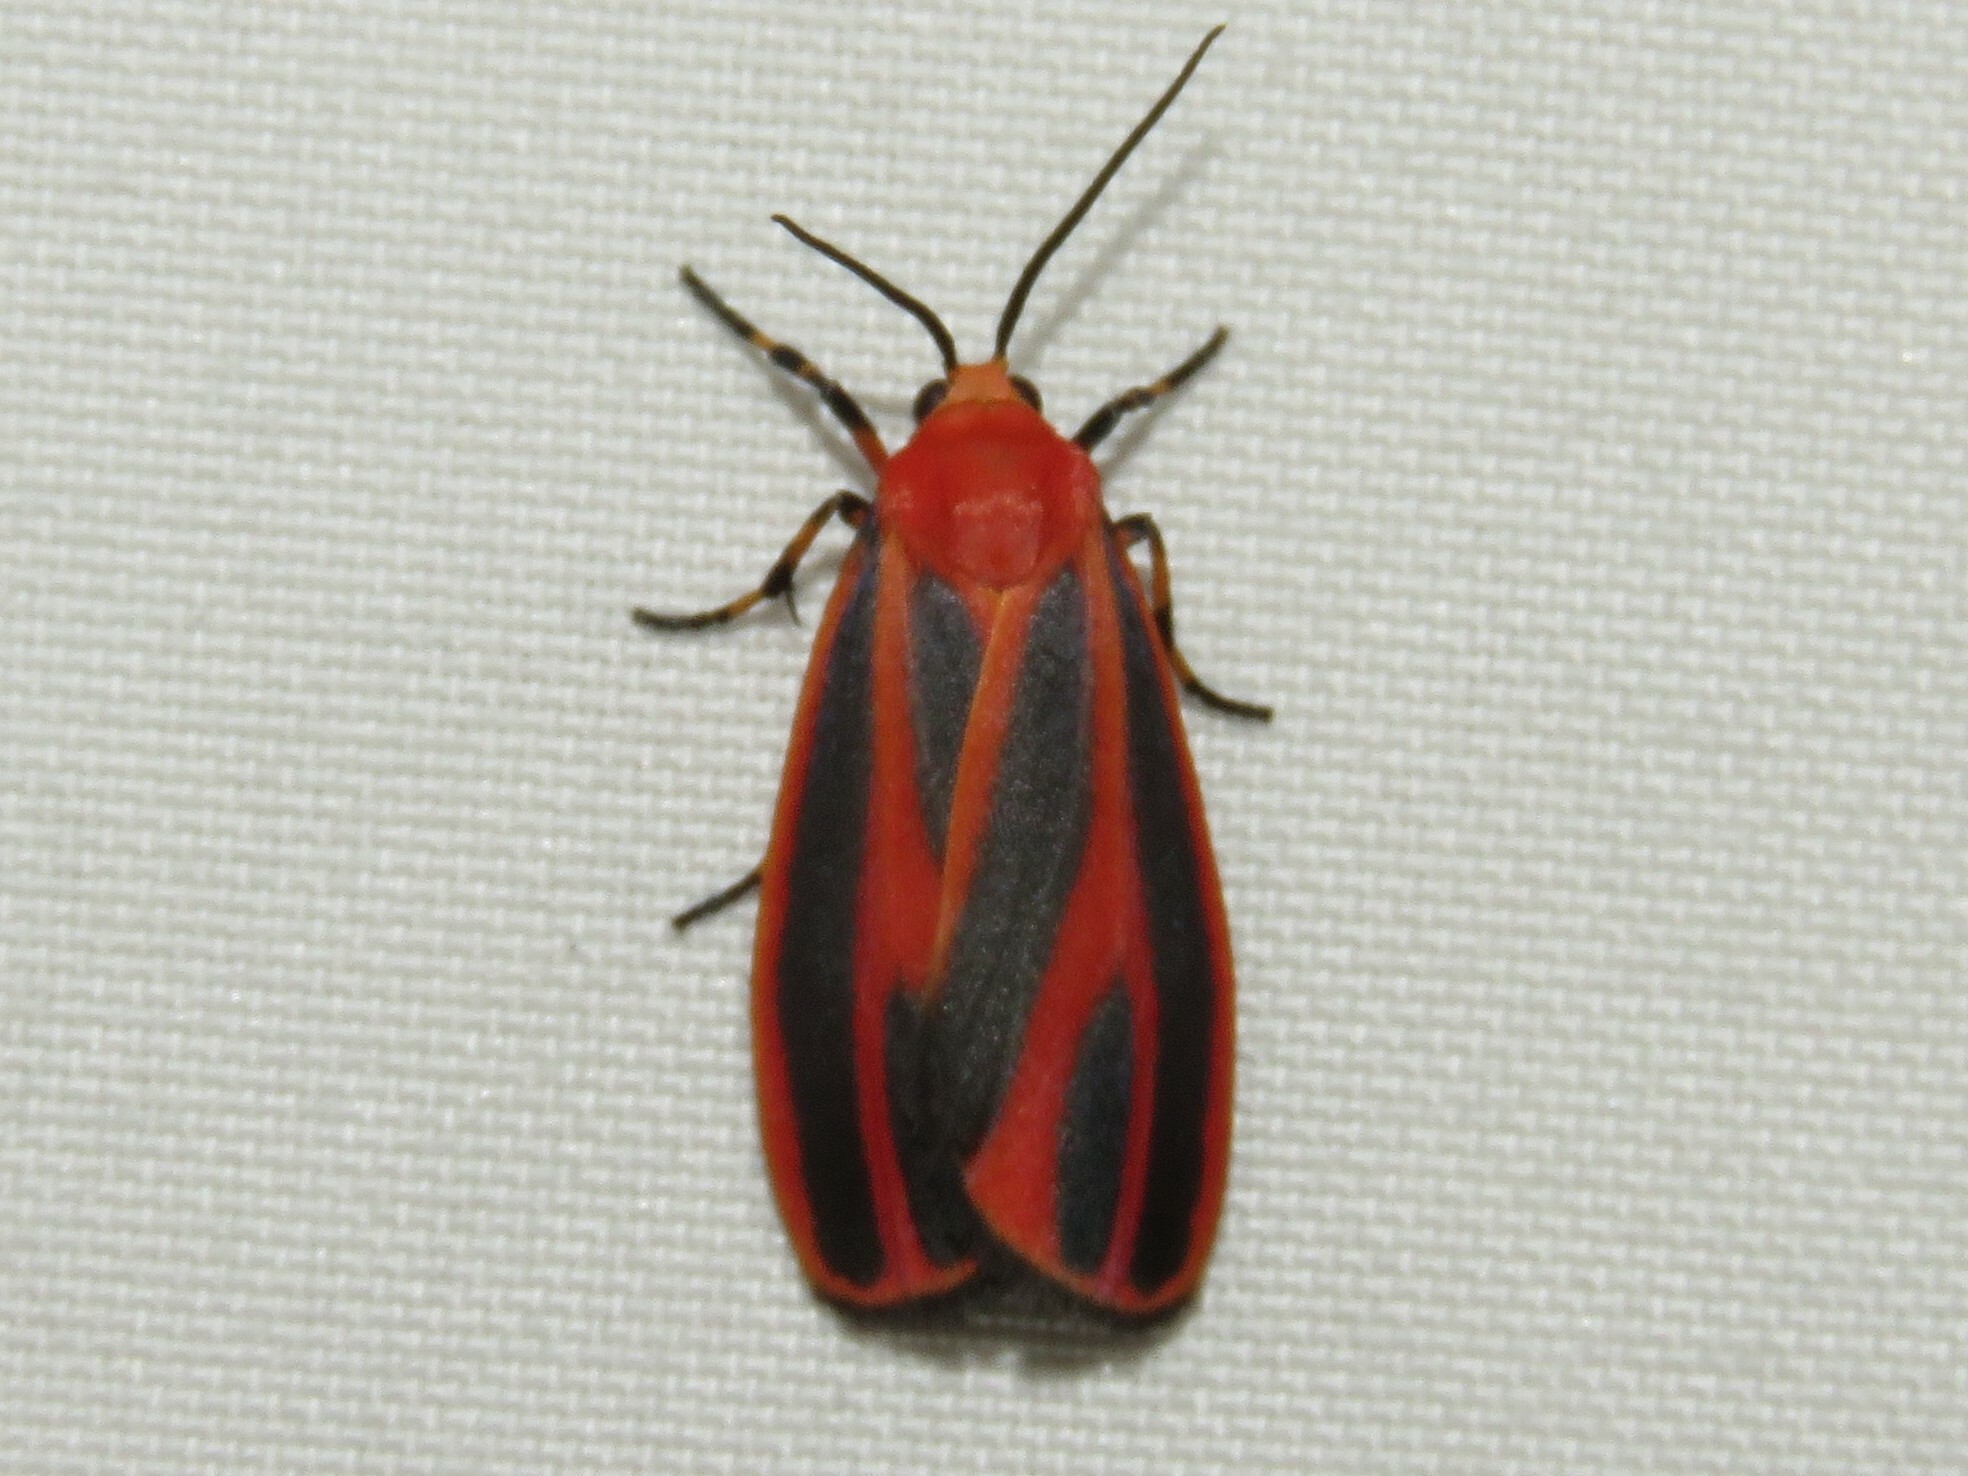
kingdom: Animalia
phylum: Arthropoda
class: Insecta
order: Lepidoptera
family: Erebidae
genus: Hypoprepia
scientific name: Hypoprepia miniata
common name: Scarlet-winged lichen moth
